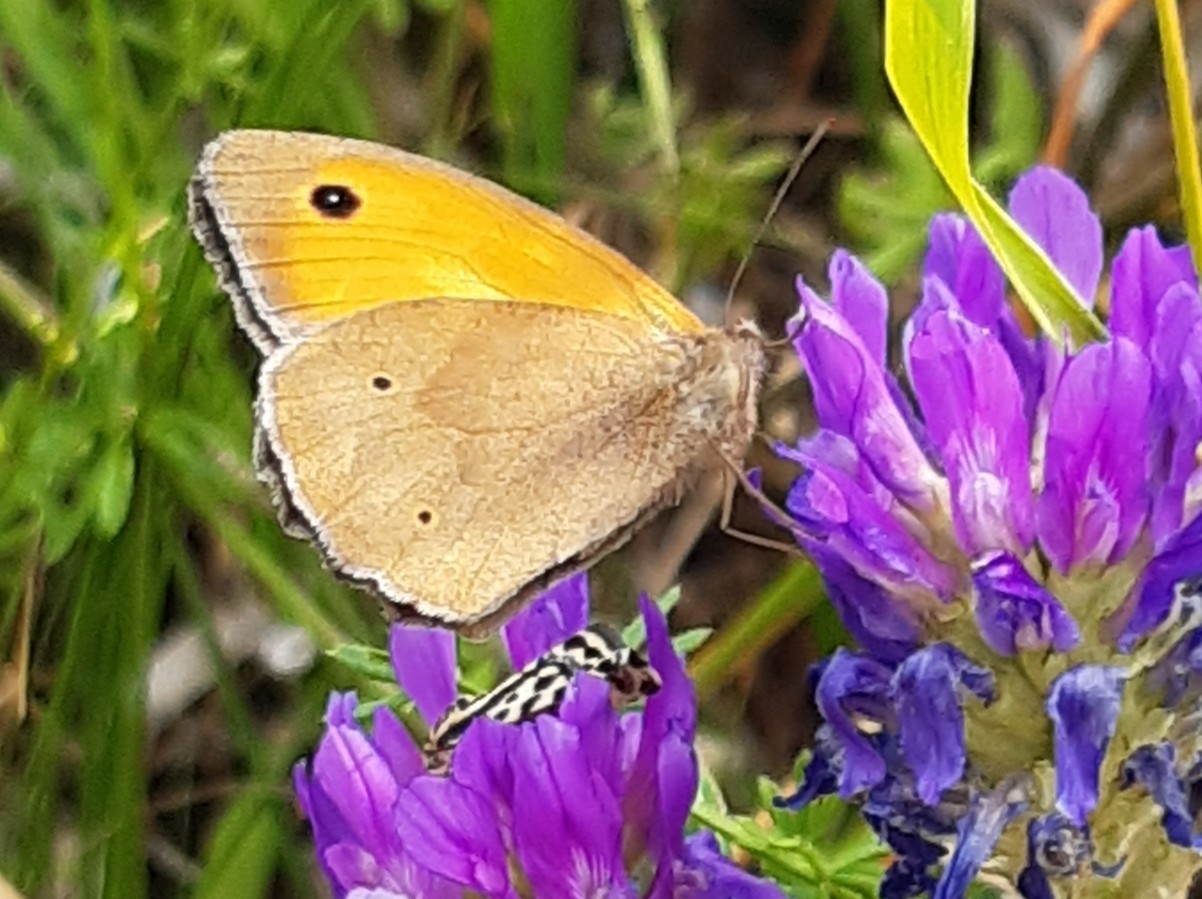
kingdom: Animalia
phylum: Arthropoda
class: Insecta
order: Lepidoptera
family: Nymphalidae
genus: Maniola
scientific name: Maniola jurtina
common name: Meadow brown
